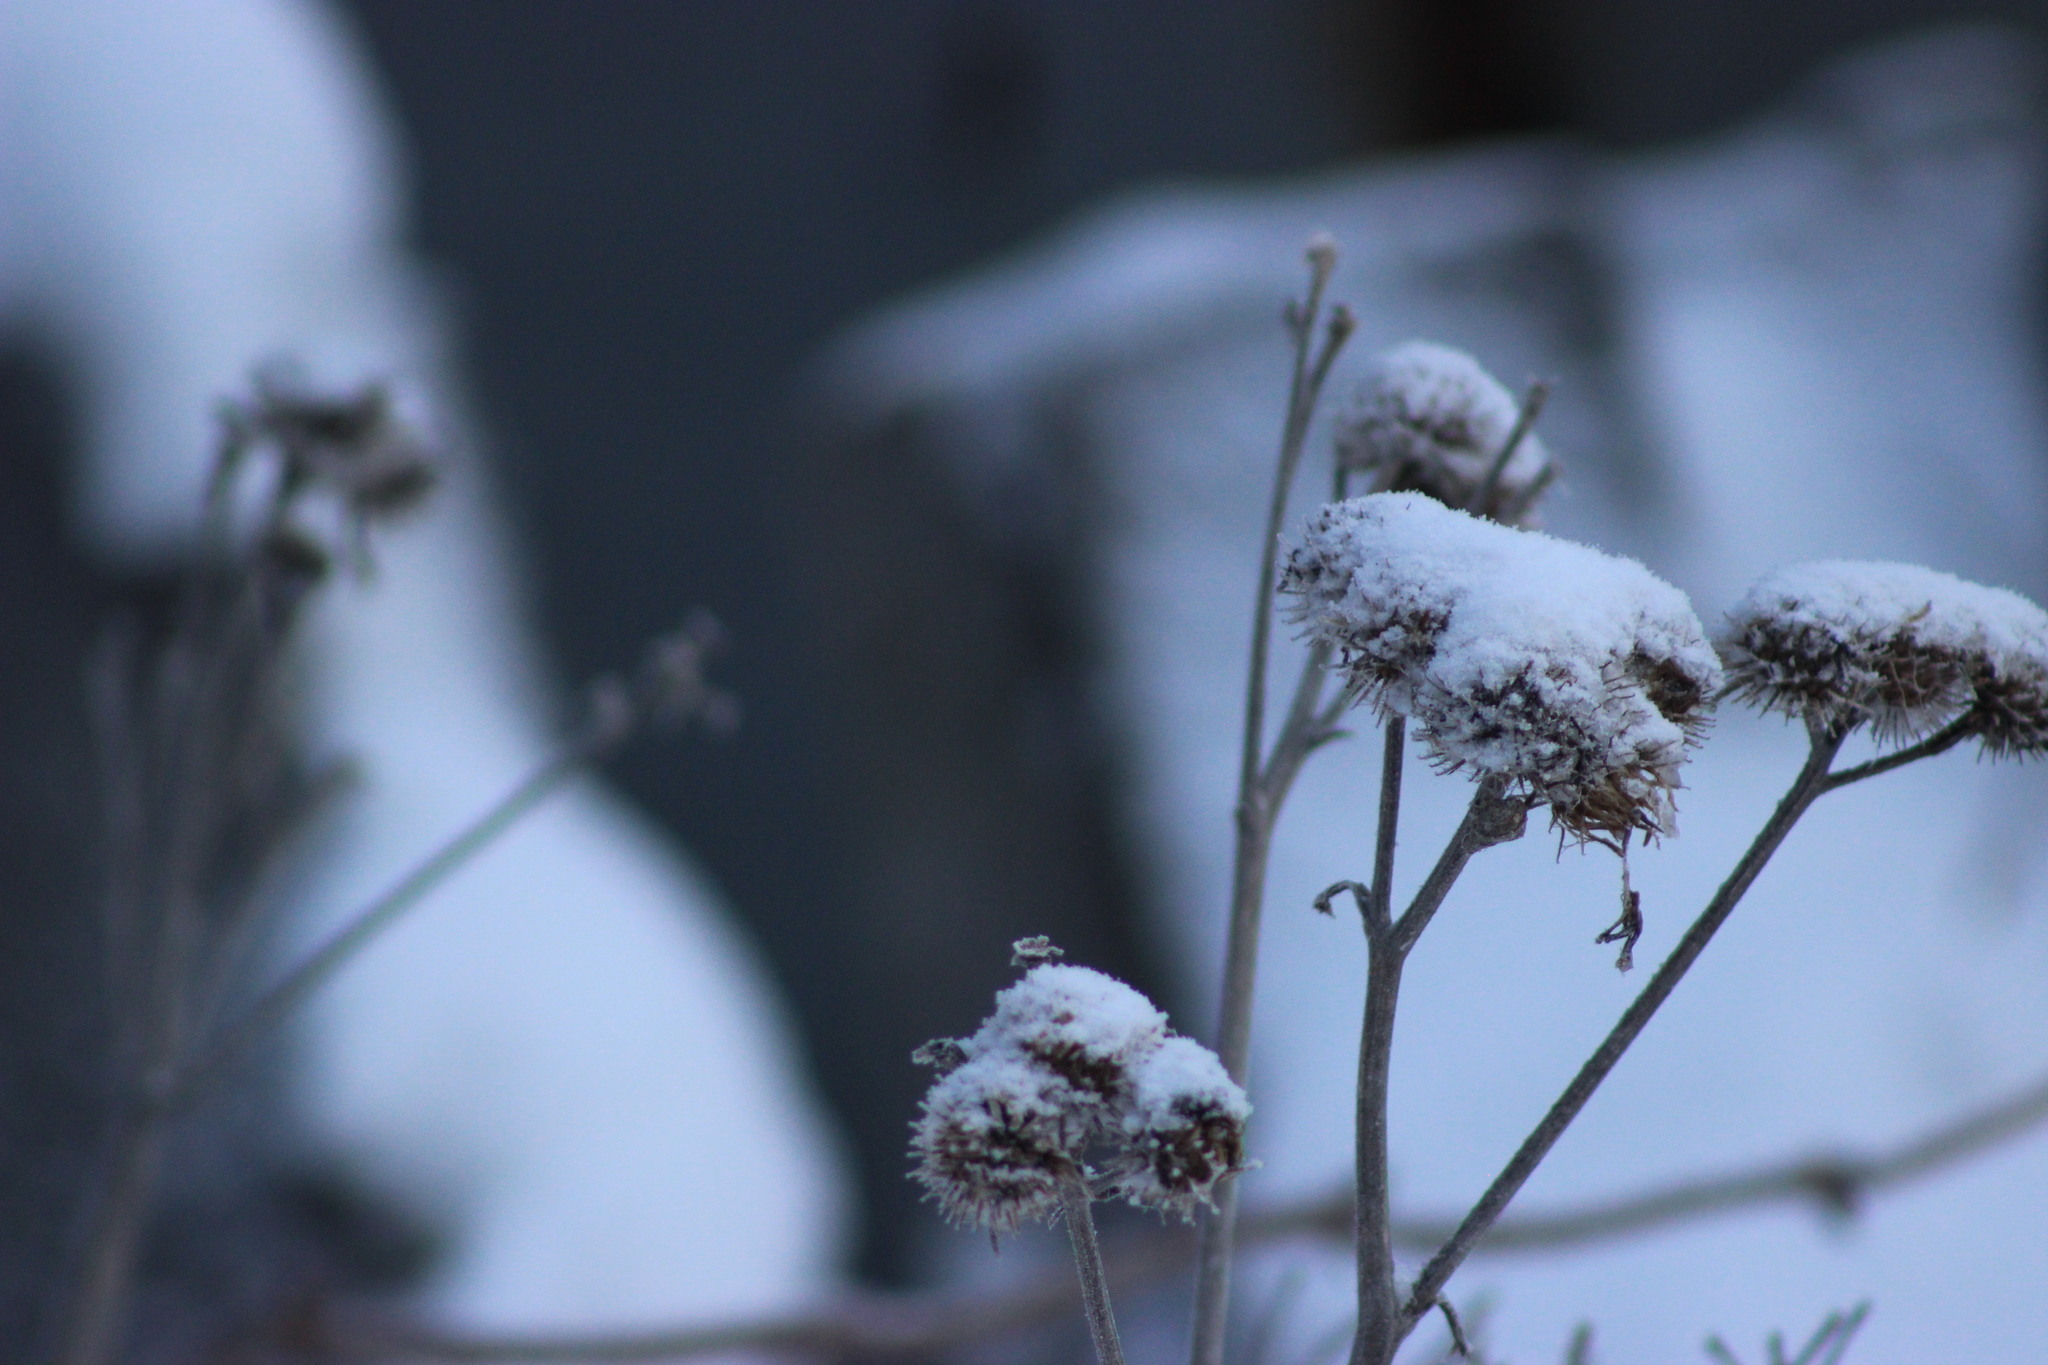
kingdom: Plantae
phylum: Tracheophyta
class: Magnoliopsida
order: Asterales
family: Asteraceae
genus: Arctium
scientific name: Arctium tomentosum
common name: Woolly burdock
